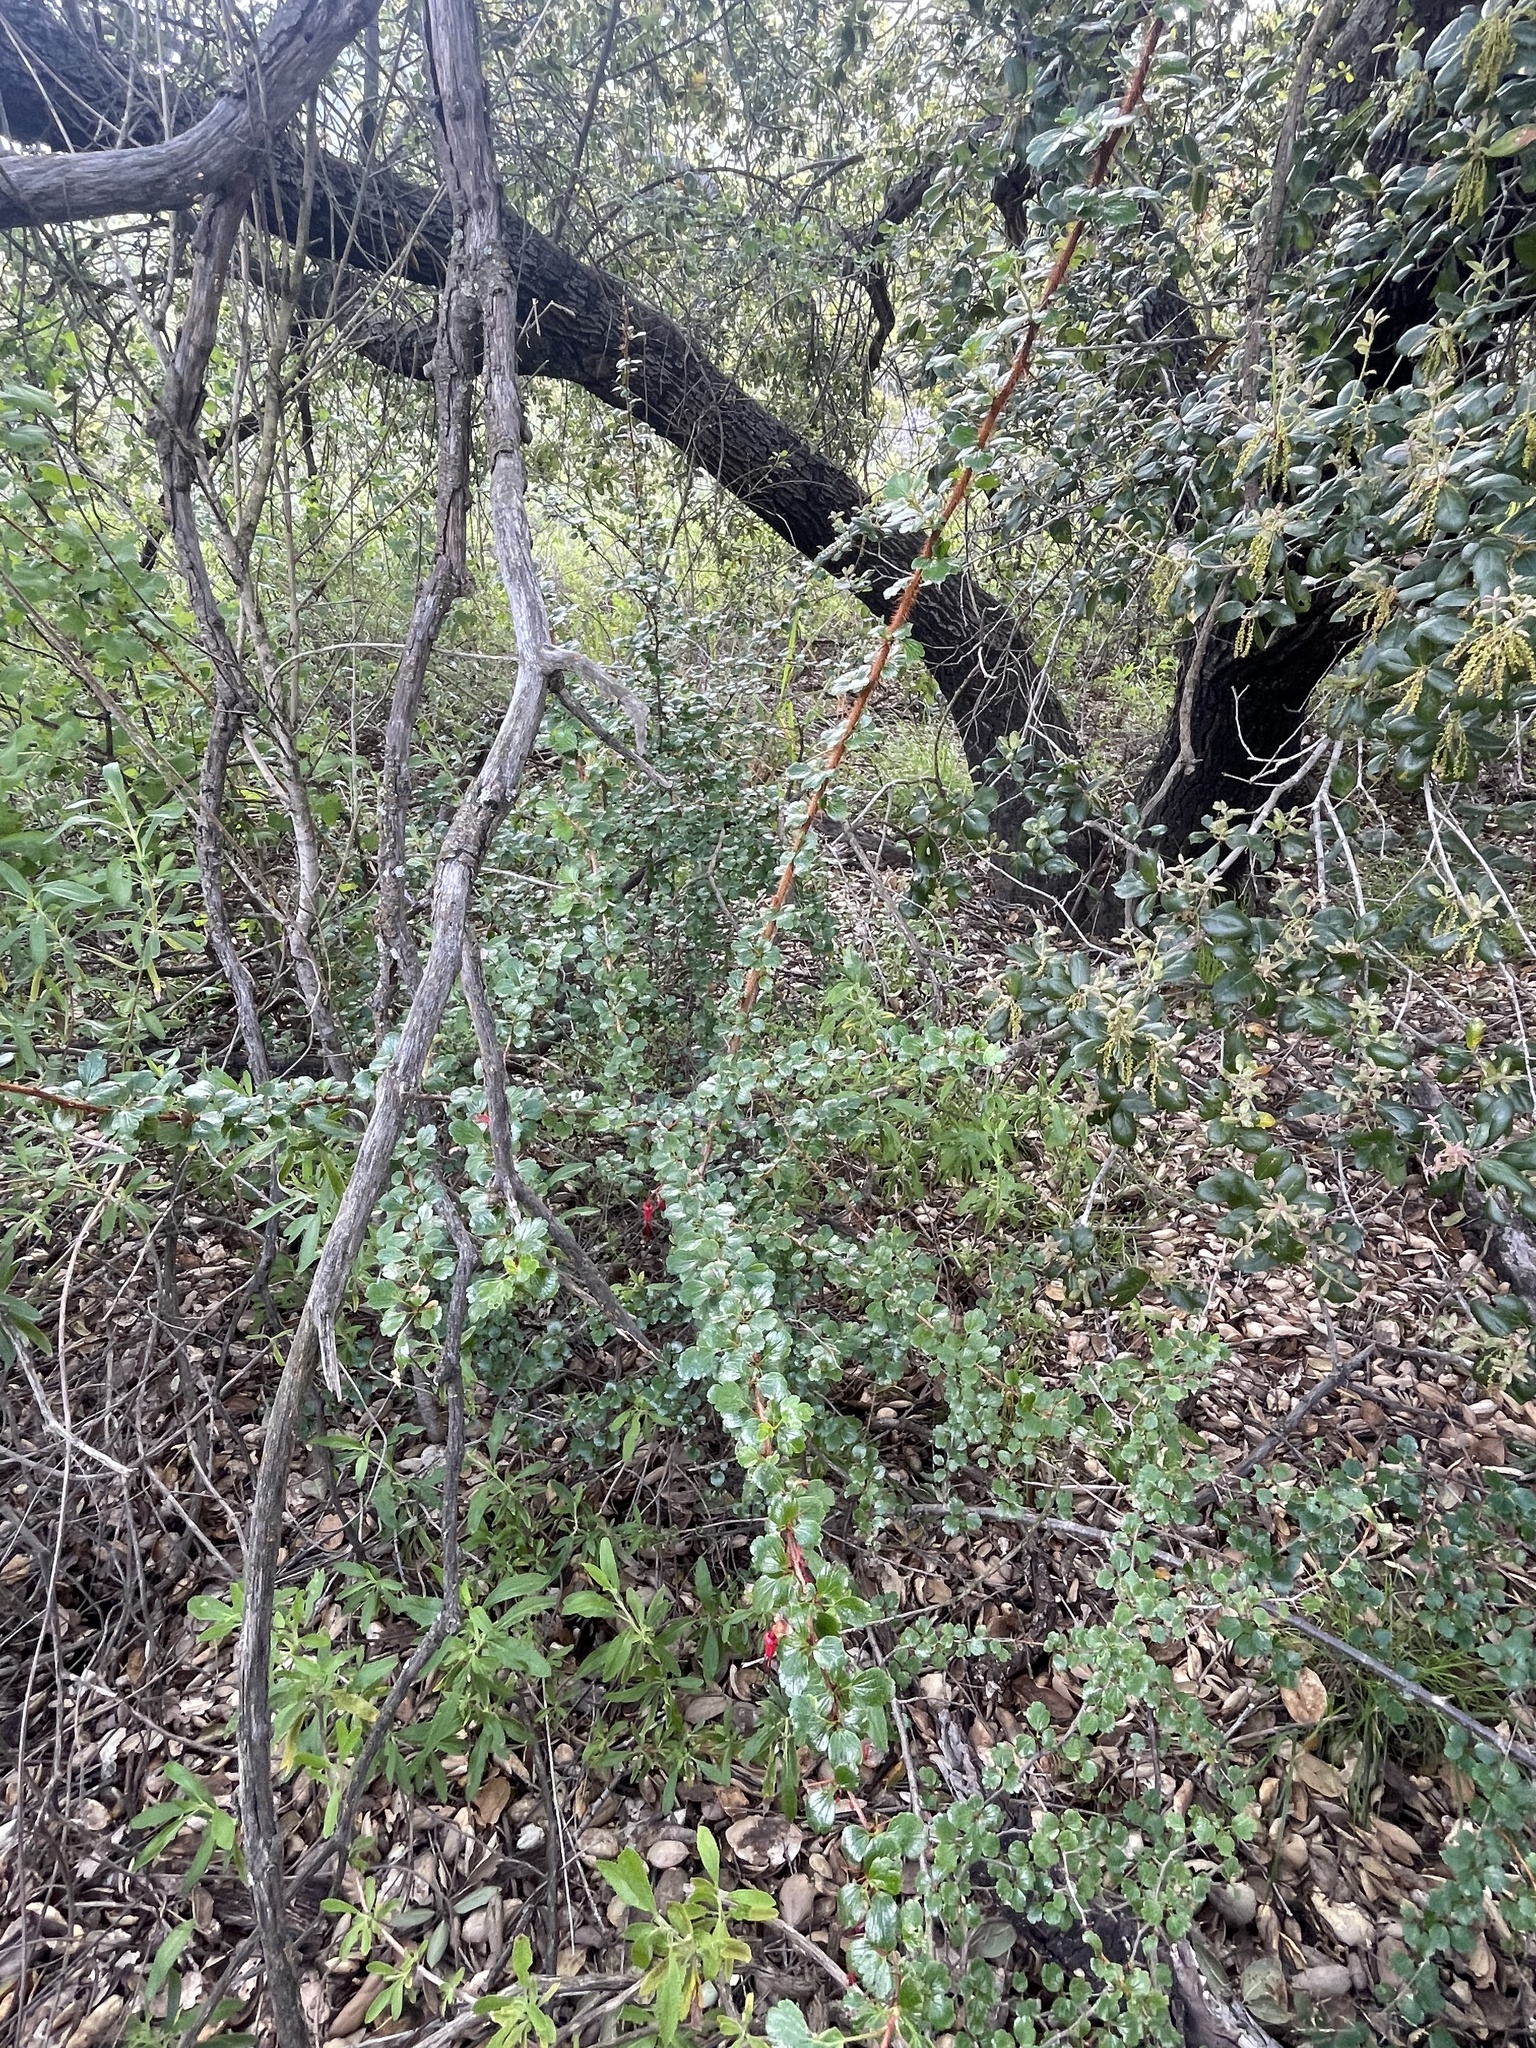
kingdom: Plantae
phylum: Tracheophyta
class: Magnoliopsida
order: Saxifragales
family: Grossulariaceae
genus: Ribes
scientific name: Ribes speciosum
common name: Fuchsia-flower gooseberry
